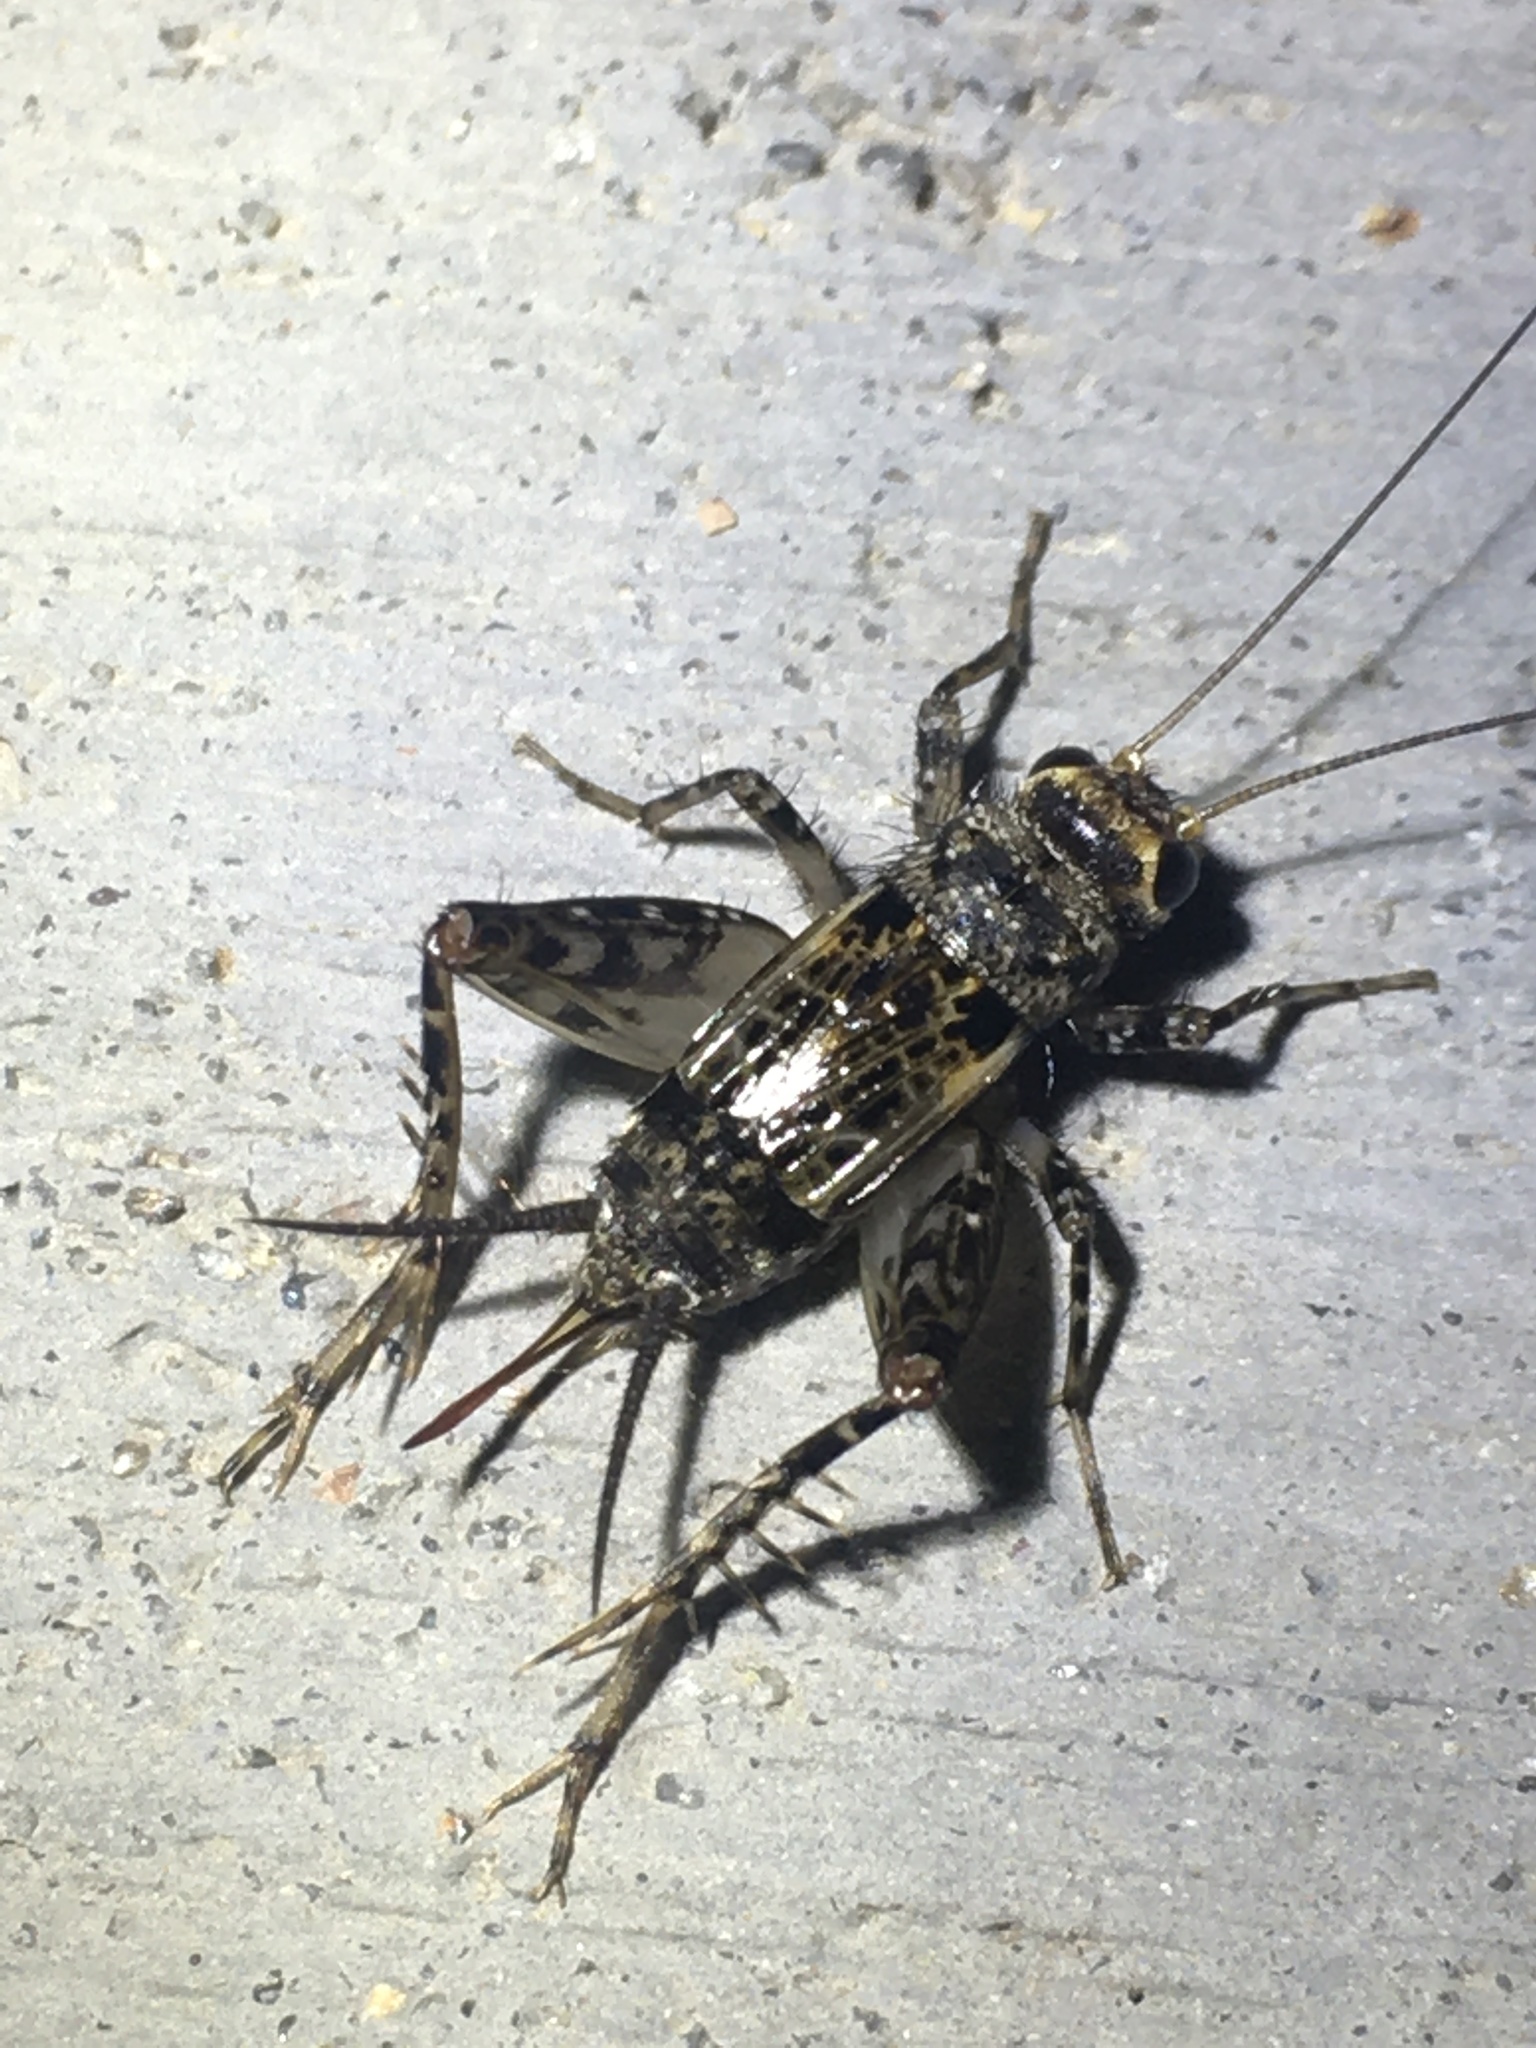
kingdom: Animalia
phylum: Arthropoda
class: Insecta
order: Orthoptera
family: Trigonidiidae
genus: Allonemobius
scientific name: Allonemobius maculatus
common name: Larger spotted ground cricket
